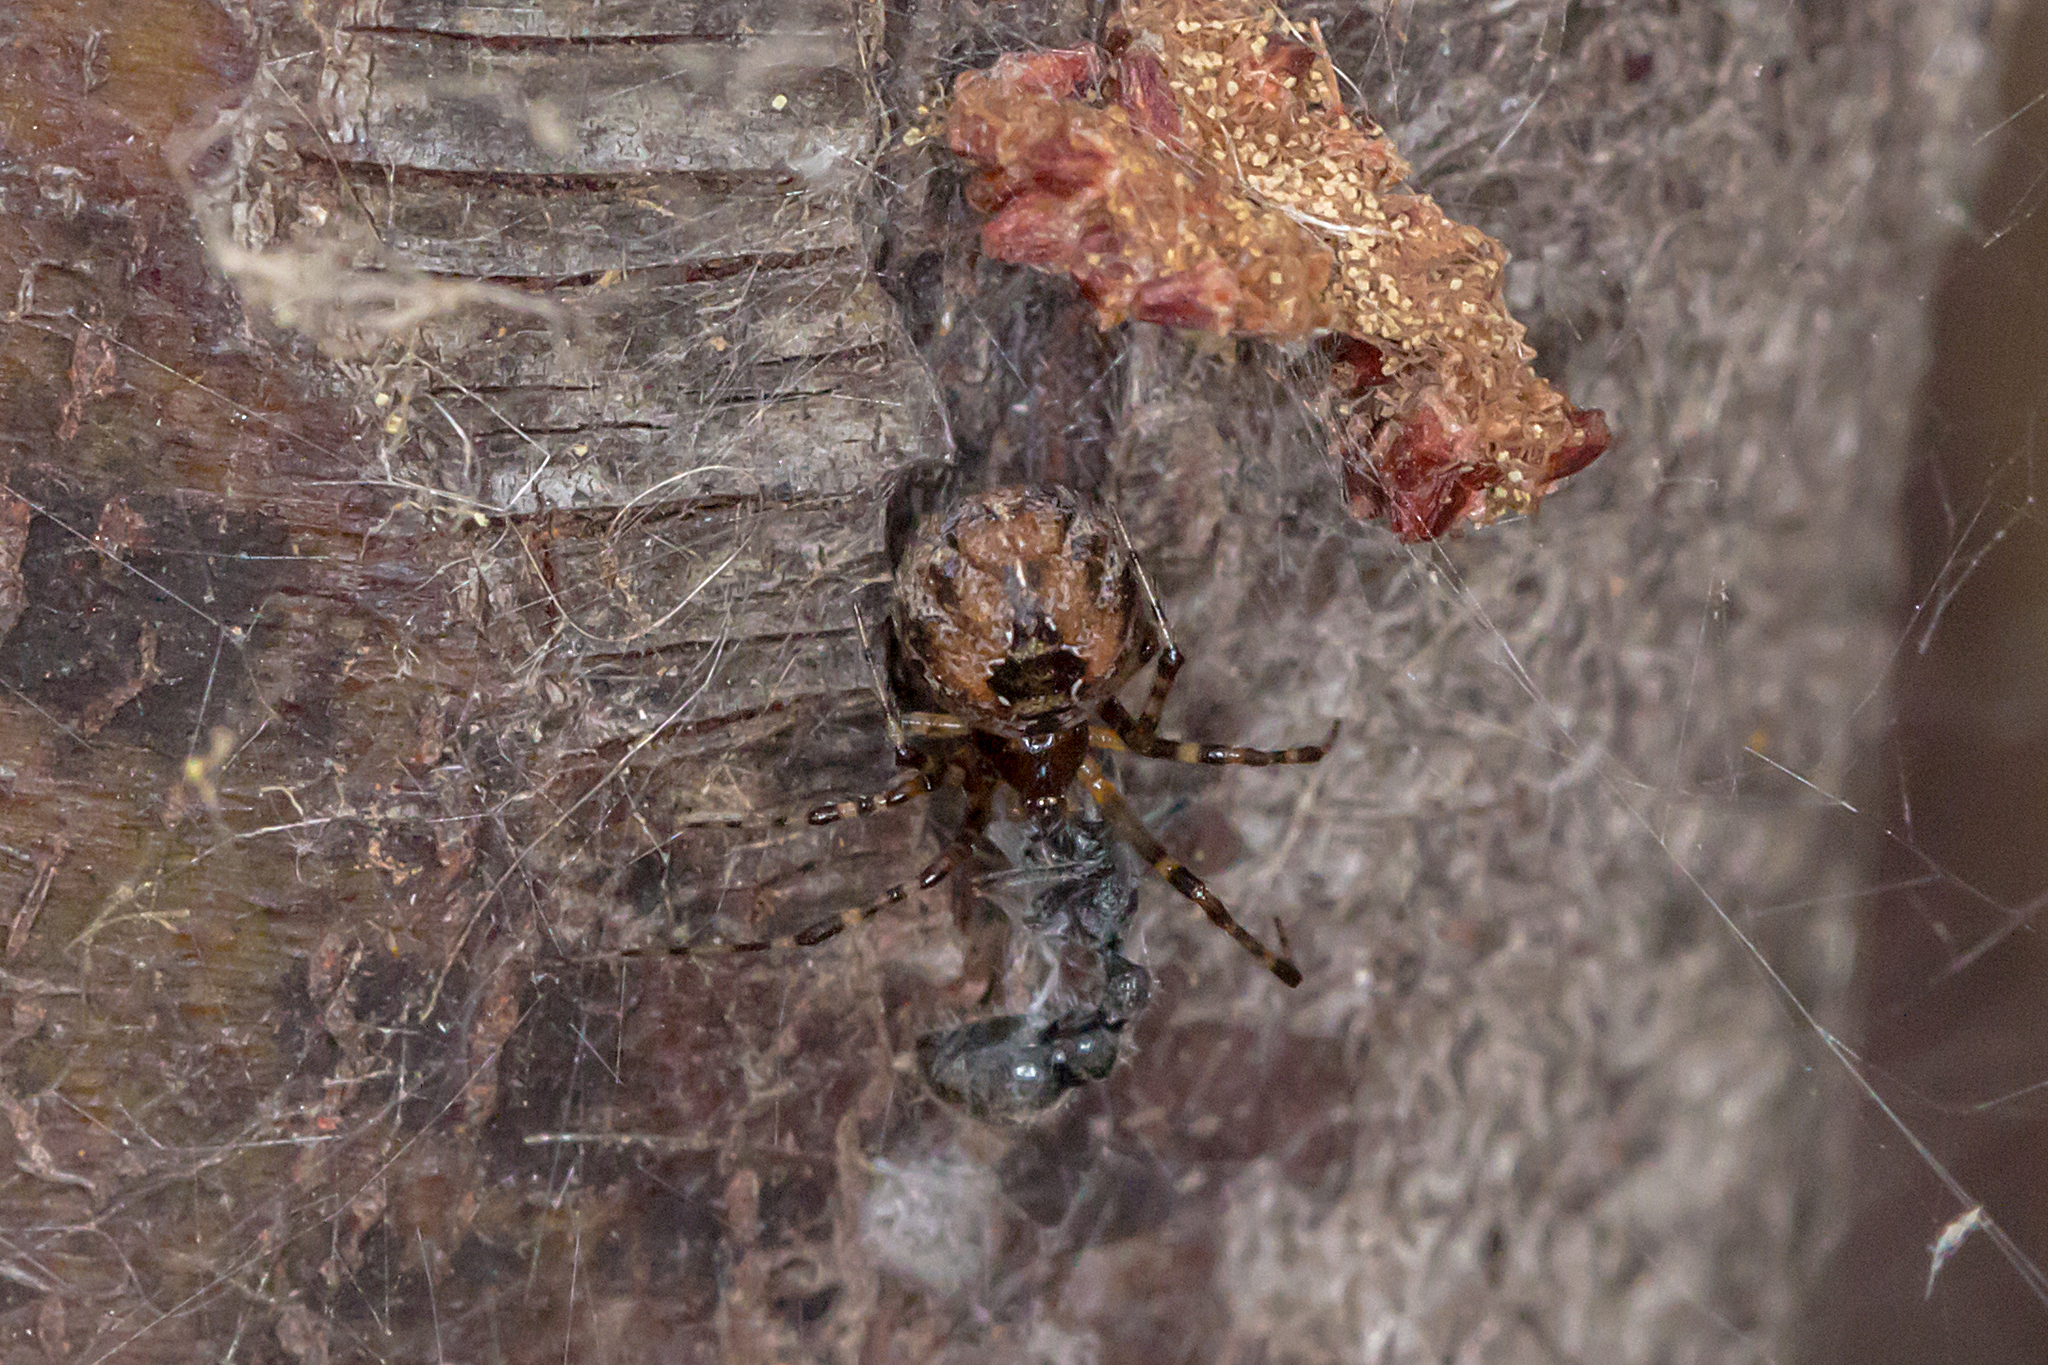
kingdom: Animalia
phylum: Arthropoda
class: Arachnida
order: Araneae
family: Theridiidae
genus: Cryptachaea
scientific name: Cryptachaea veruculata
